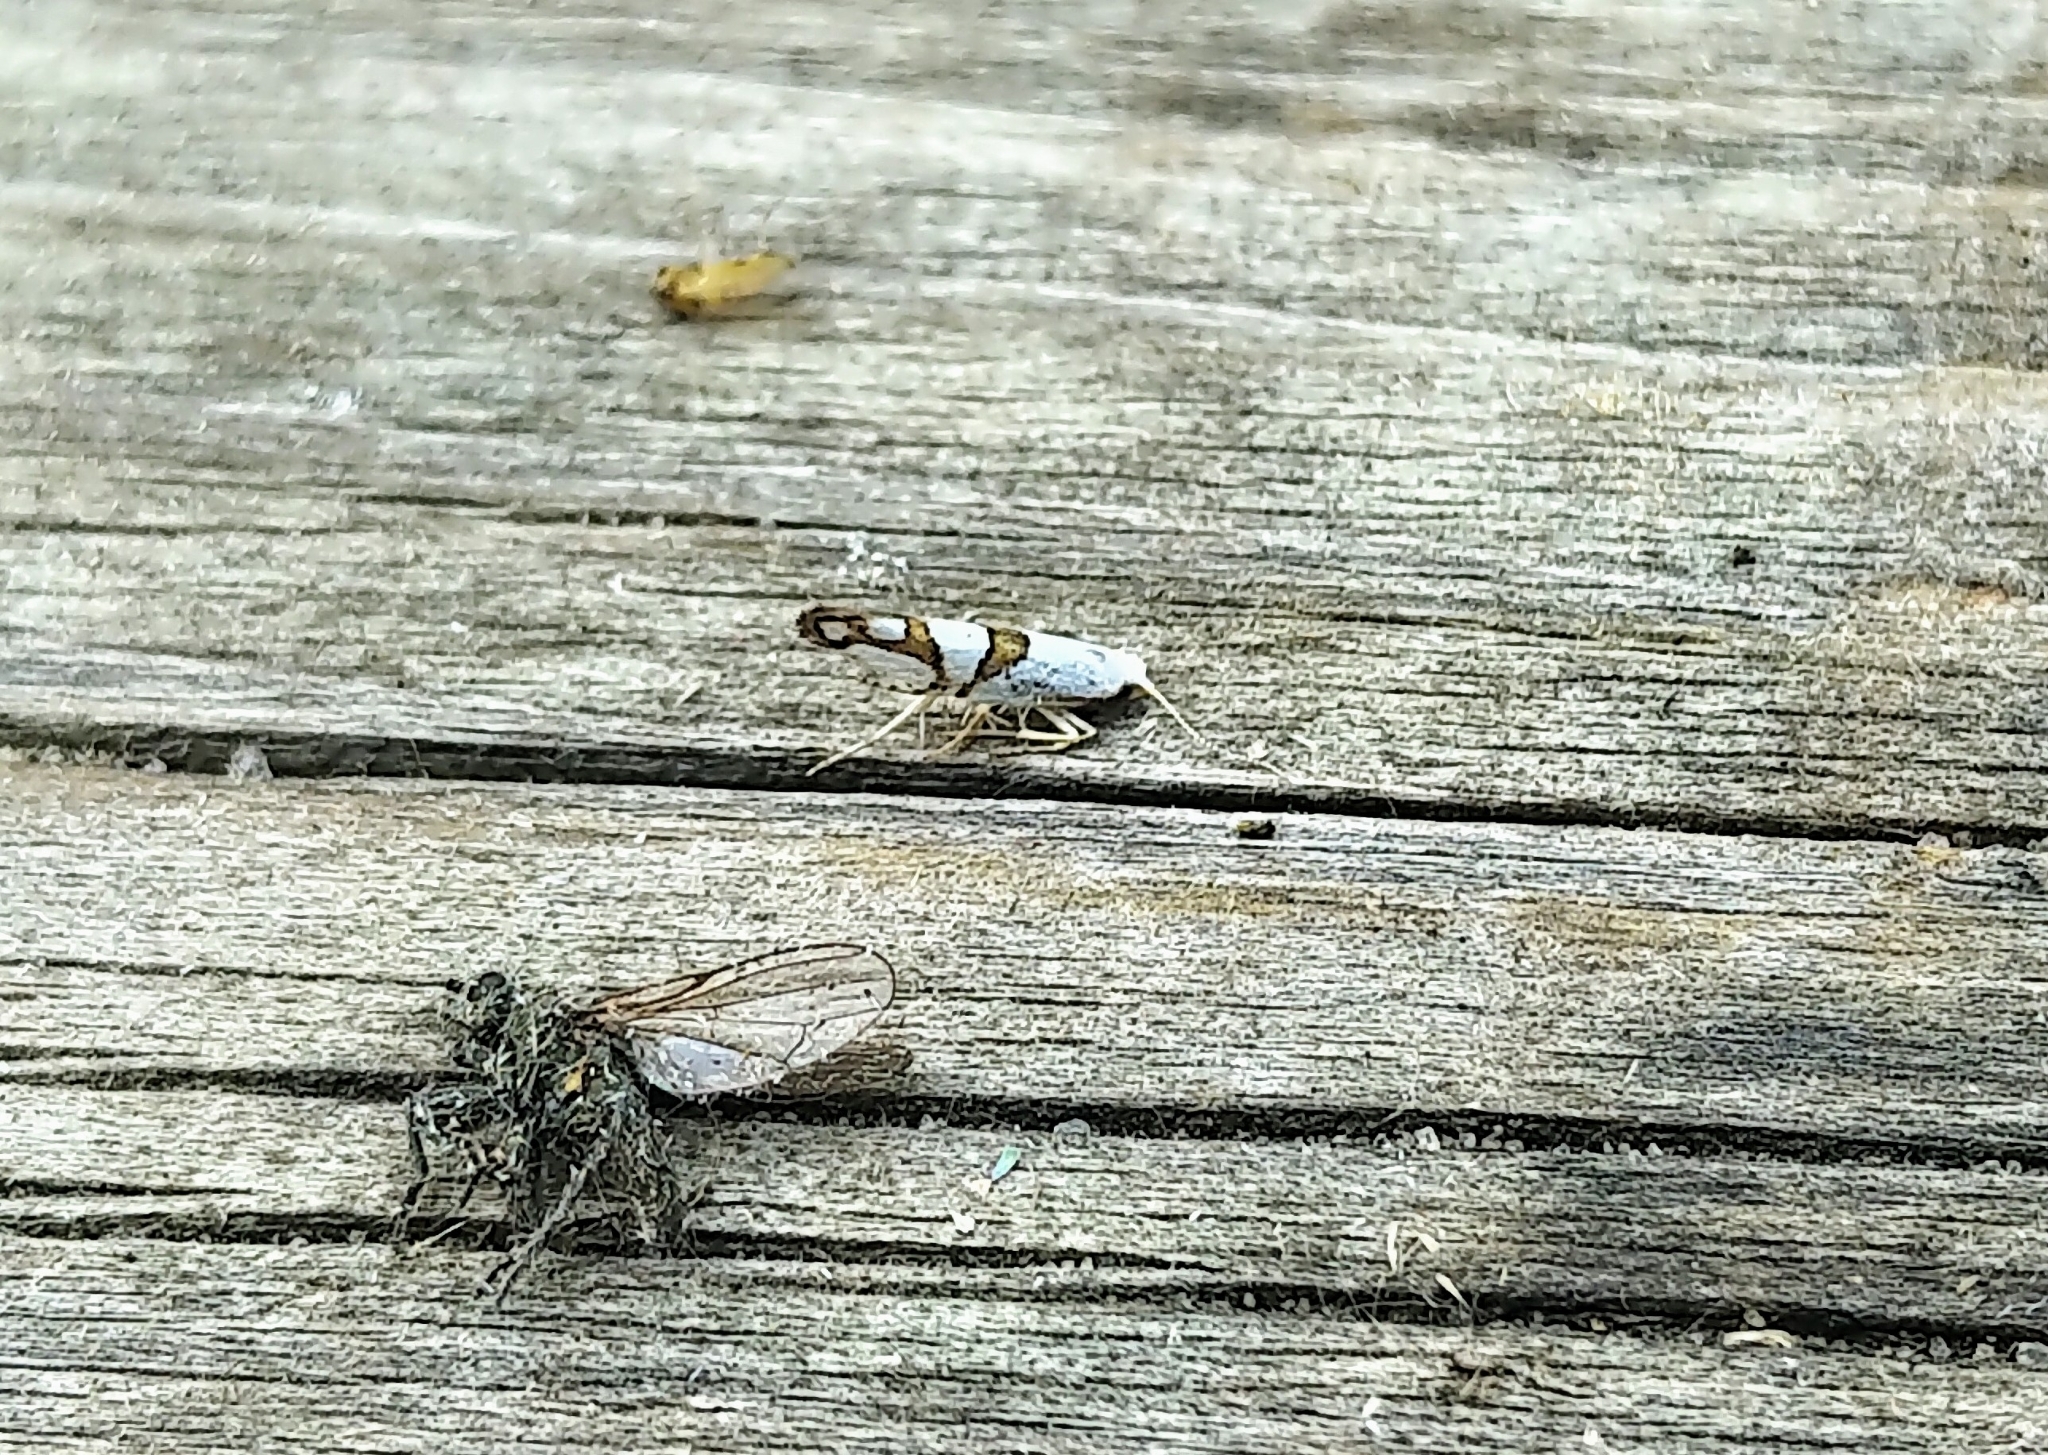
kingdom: Animalia
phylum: Arthropoda
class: Insecta
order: Lepidoptera
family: Argyresthiidae
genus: Argyresthia
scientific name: Argyresthia oreasella
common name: Cherry shoot borer moth
